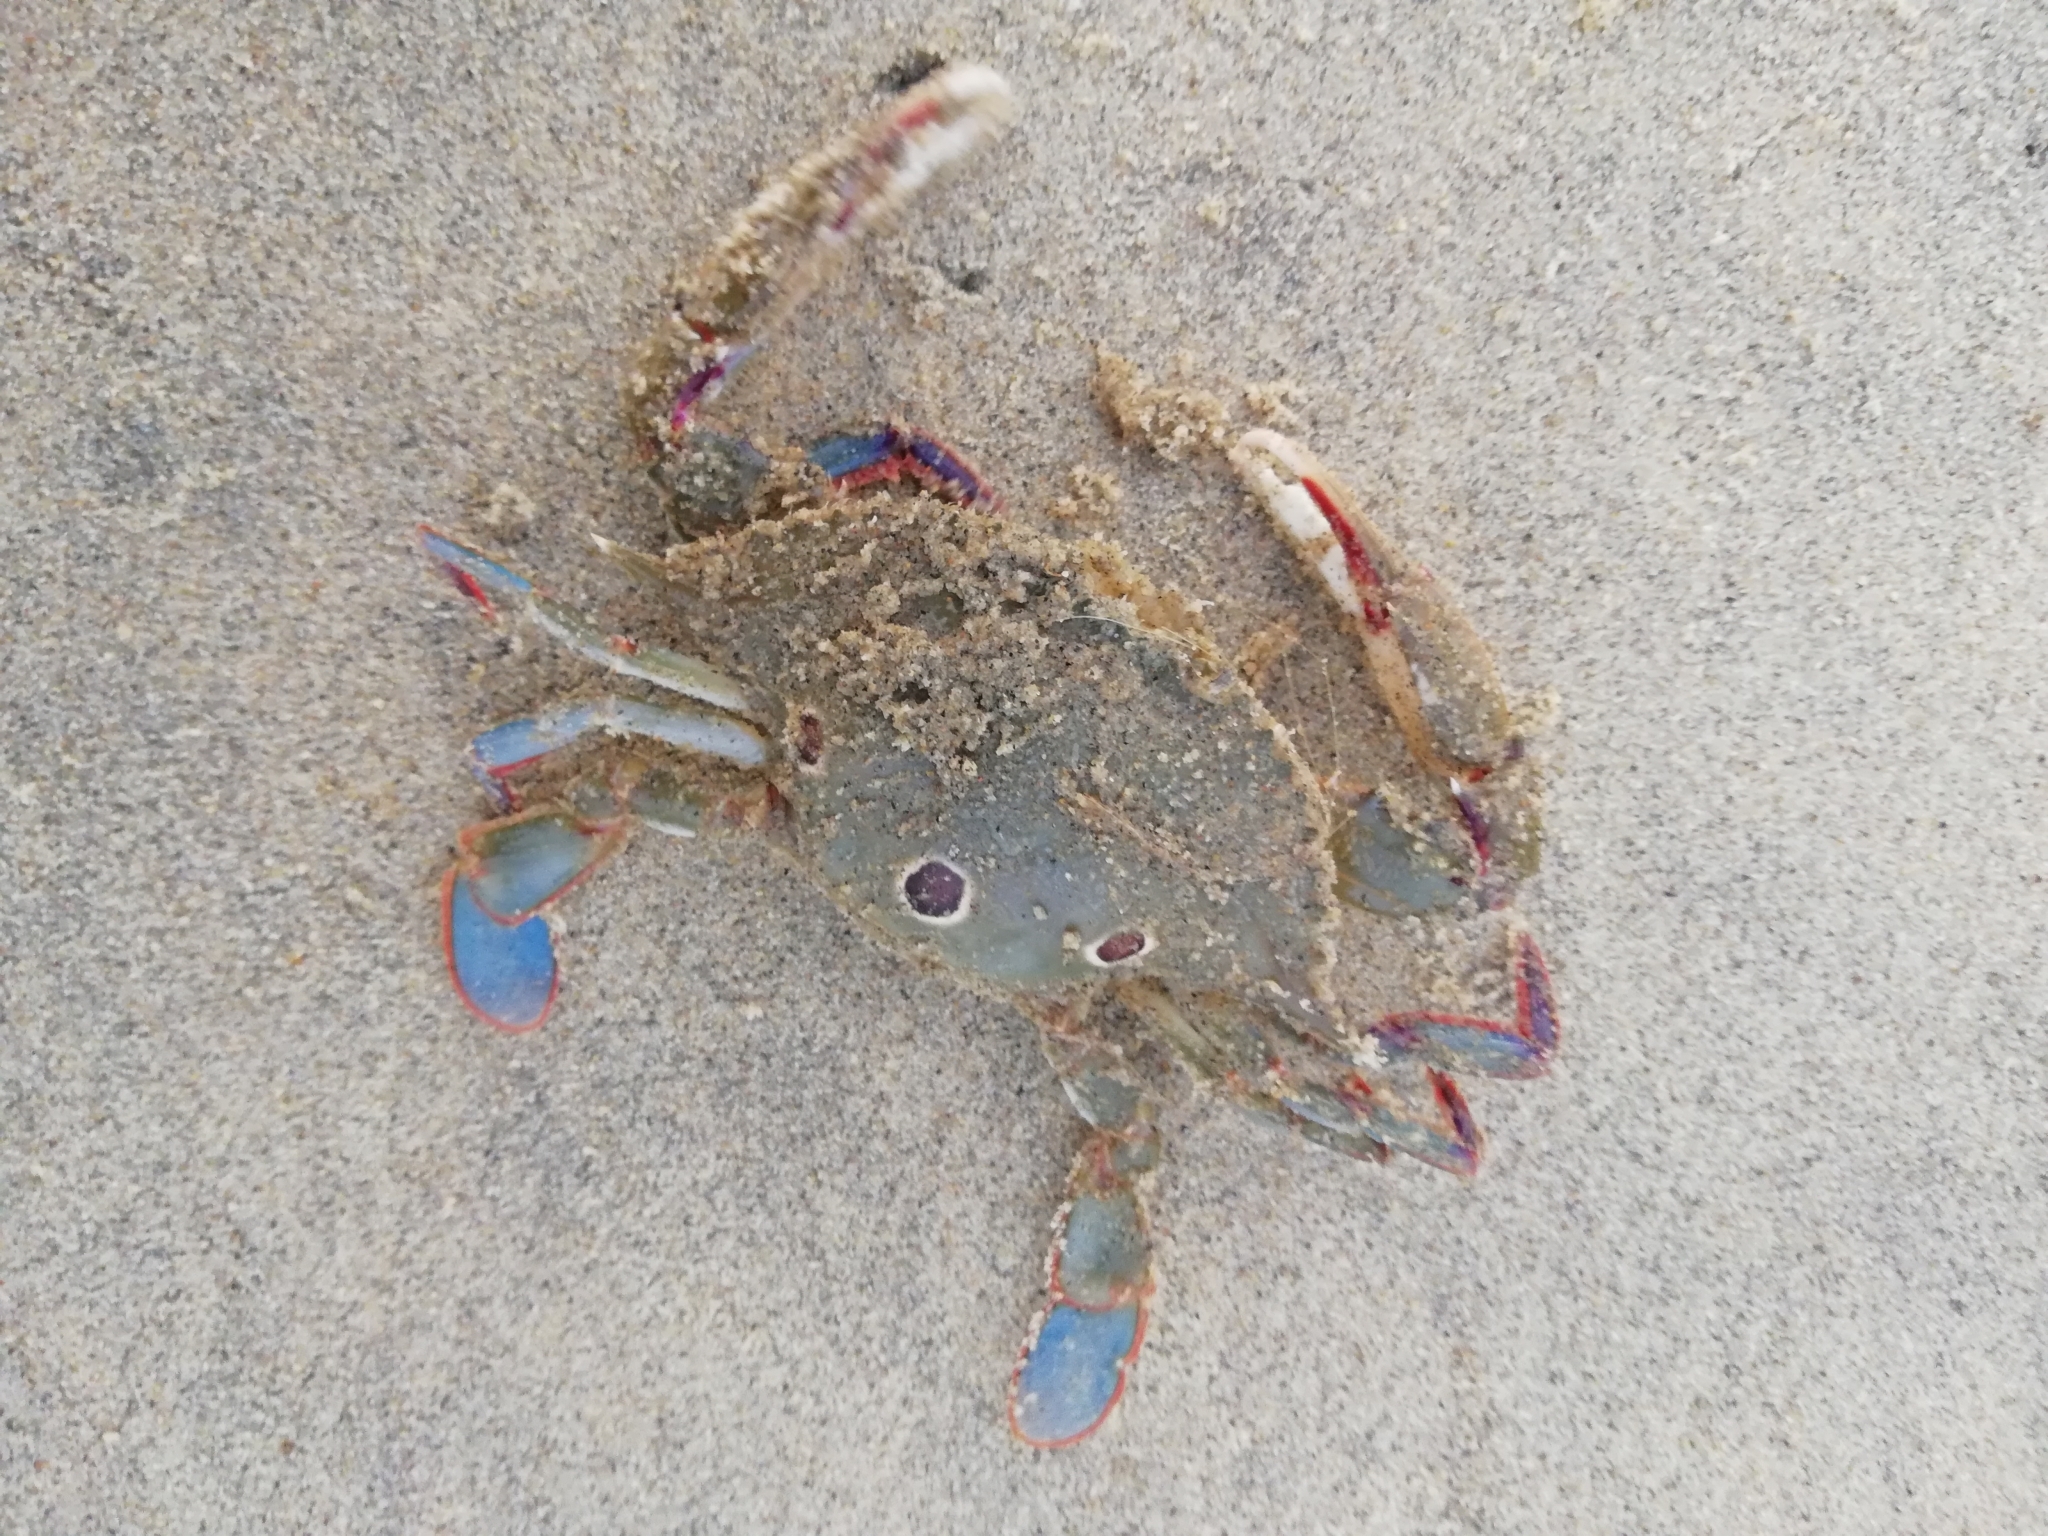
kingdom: Animalia
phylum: Arthropoda
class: Malacostraca
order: Decapoda
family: Portunidae
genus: Portunus
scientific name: Portunus sanguinolentus
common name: Blood-spotted swimming crab
